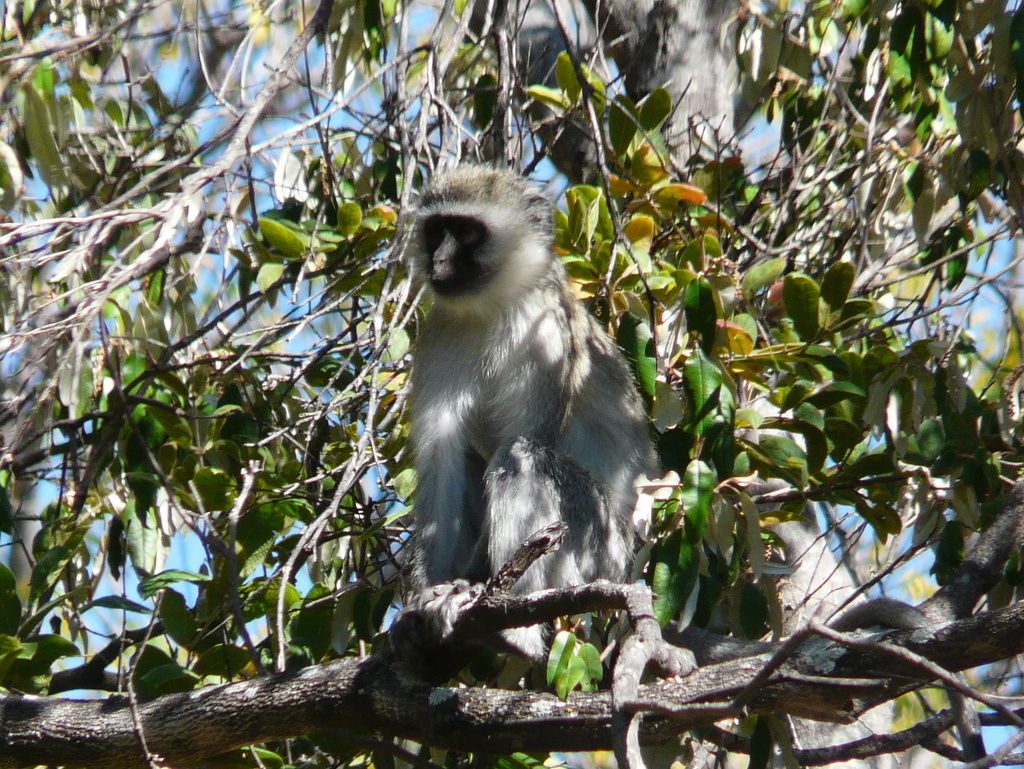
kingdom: Animalia
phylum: Chordata
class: Mammalia
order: Primates
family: Cercopithecidae
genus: Chlorocebus
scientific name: Chlorocebus pygerythrus
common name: Vervet monkey
